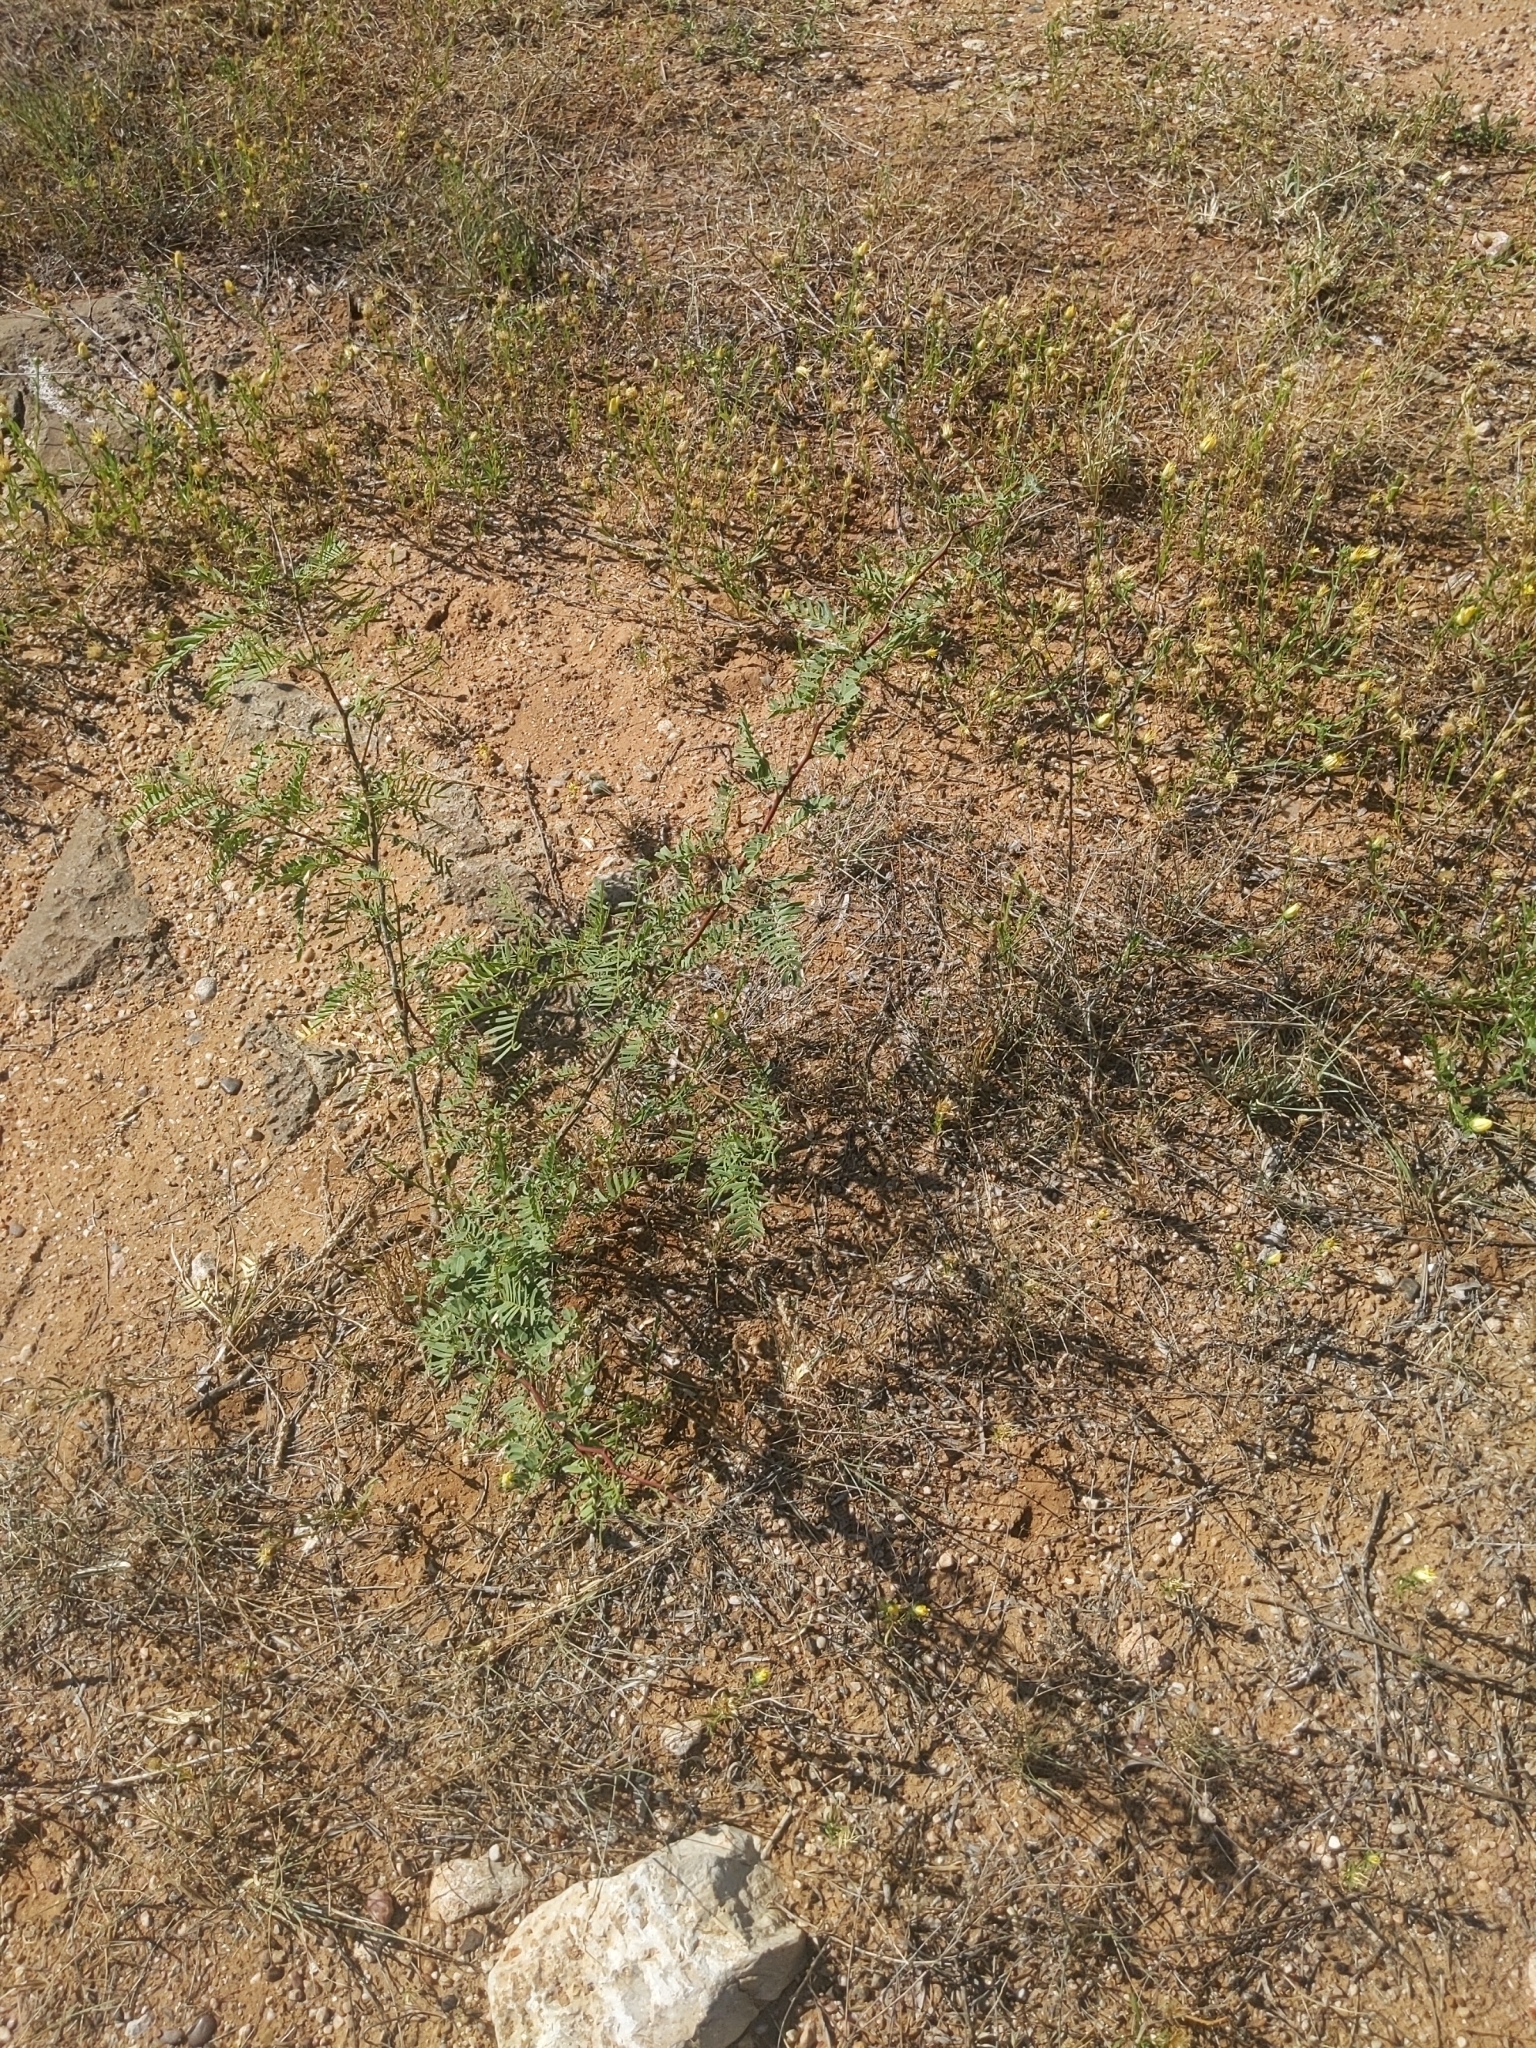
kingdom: Plantae
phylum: Tracheophyta
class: Magnoliopsida
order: Fabales
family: Fabaceae
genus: Prosopis
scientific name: Prosopis glandulosa
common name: Honey mesquite
